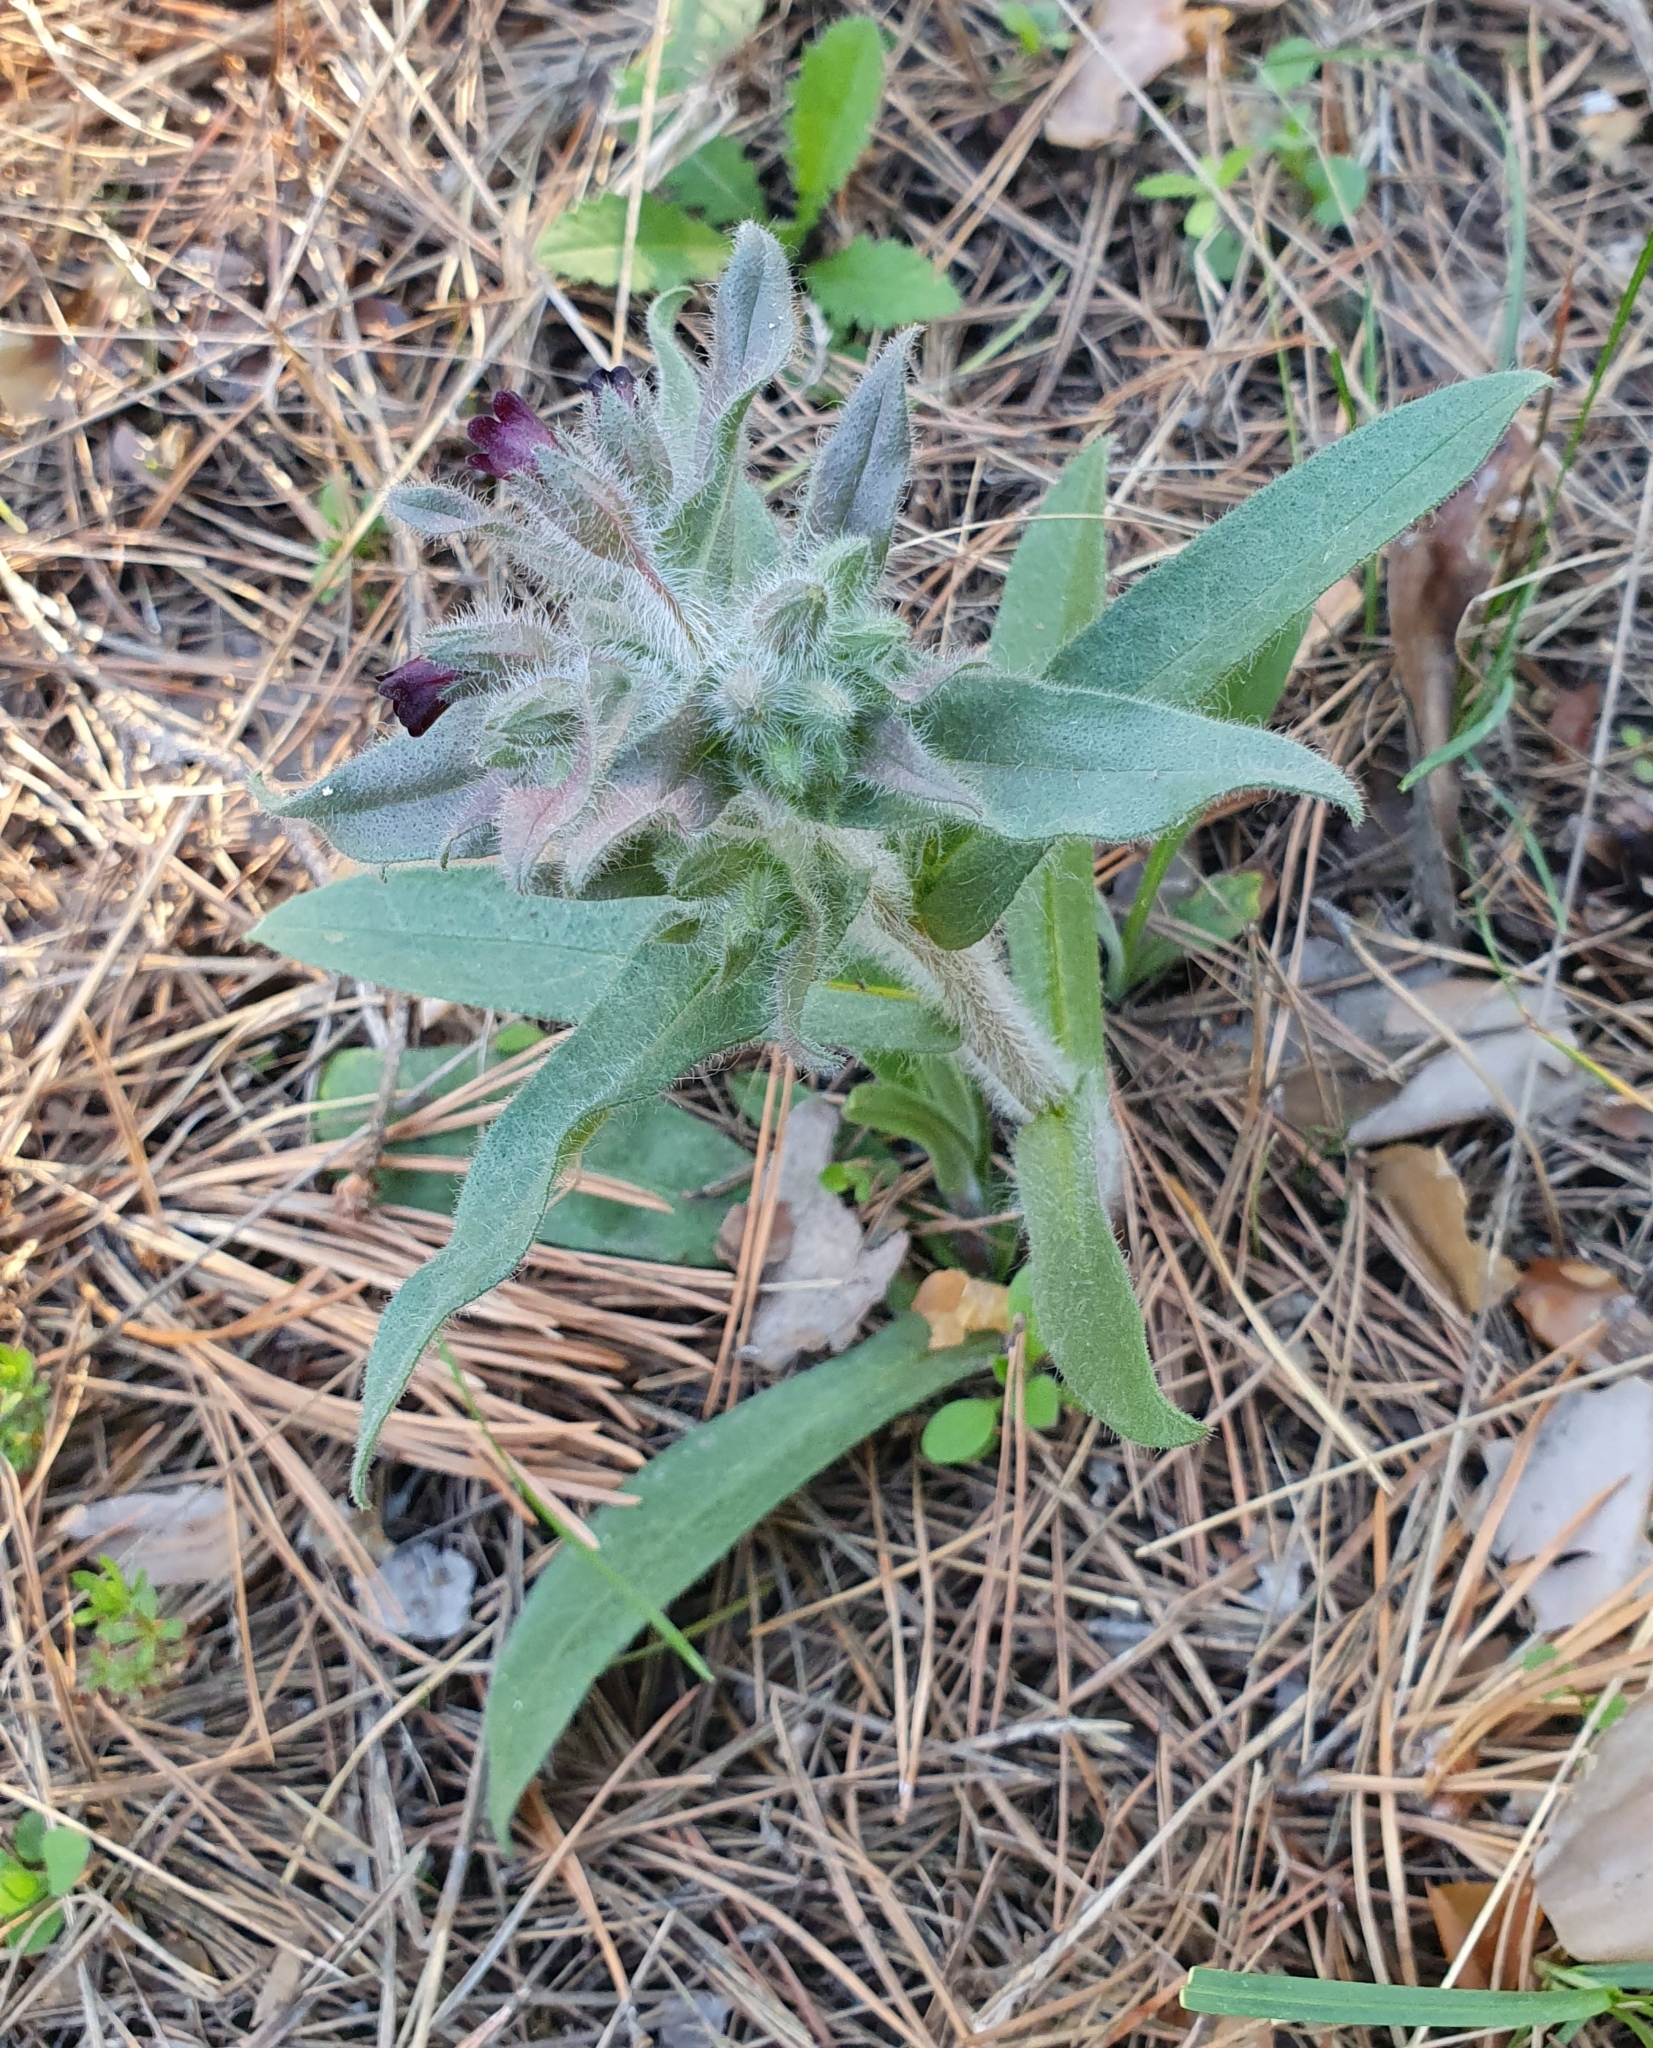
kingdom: Plantae
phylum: Tracheophyta
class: Magnoliopsida
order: Boraginales
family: Boraginaceae
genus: Nonea
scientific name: Nonea pulla
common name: Brown nonea
